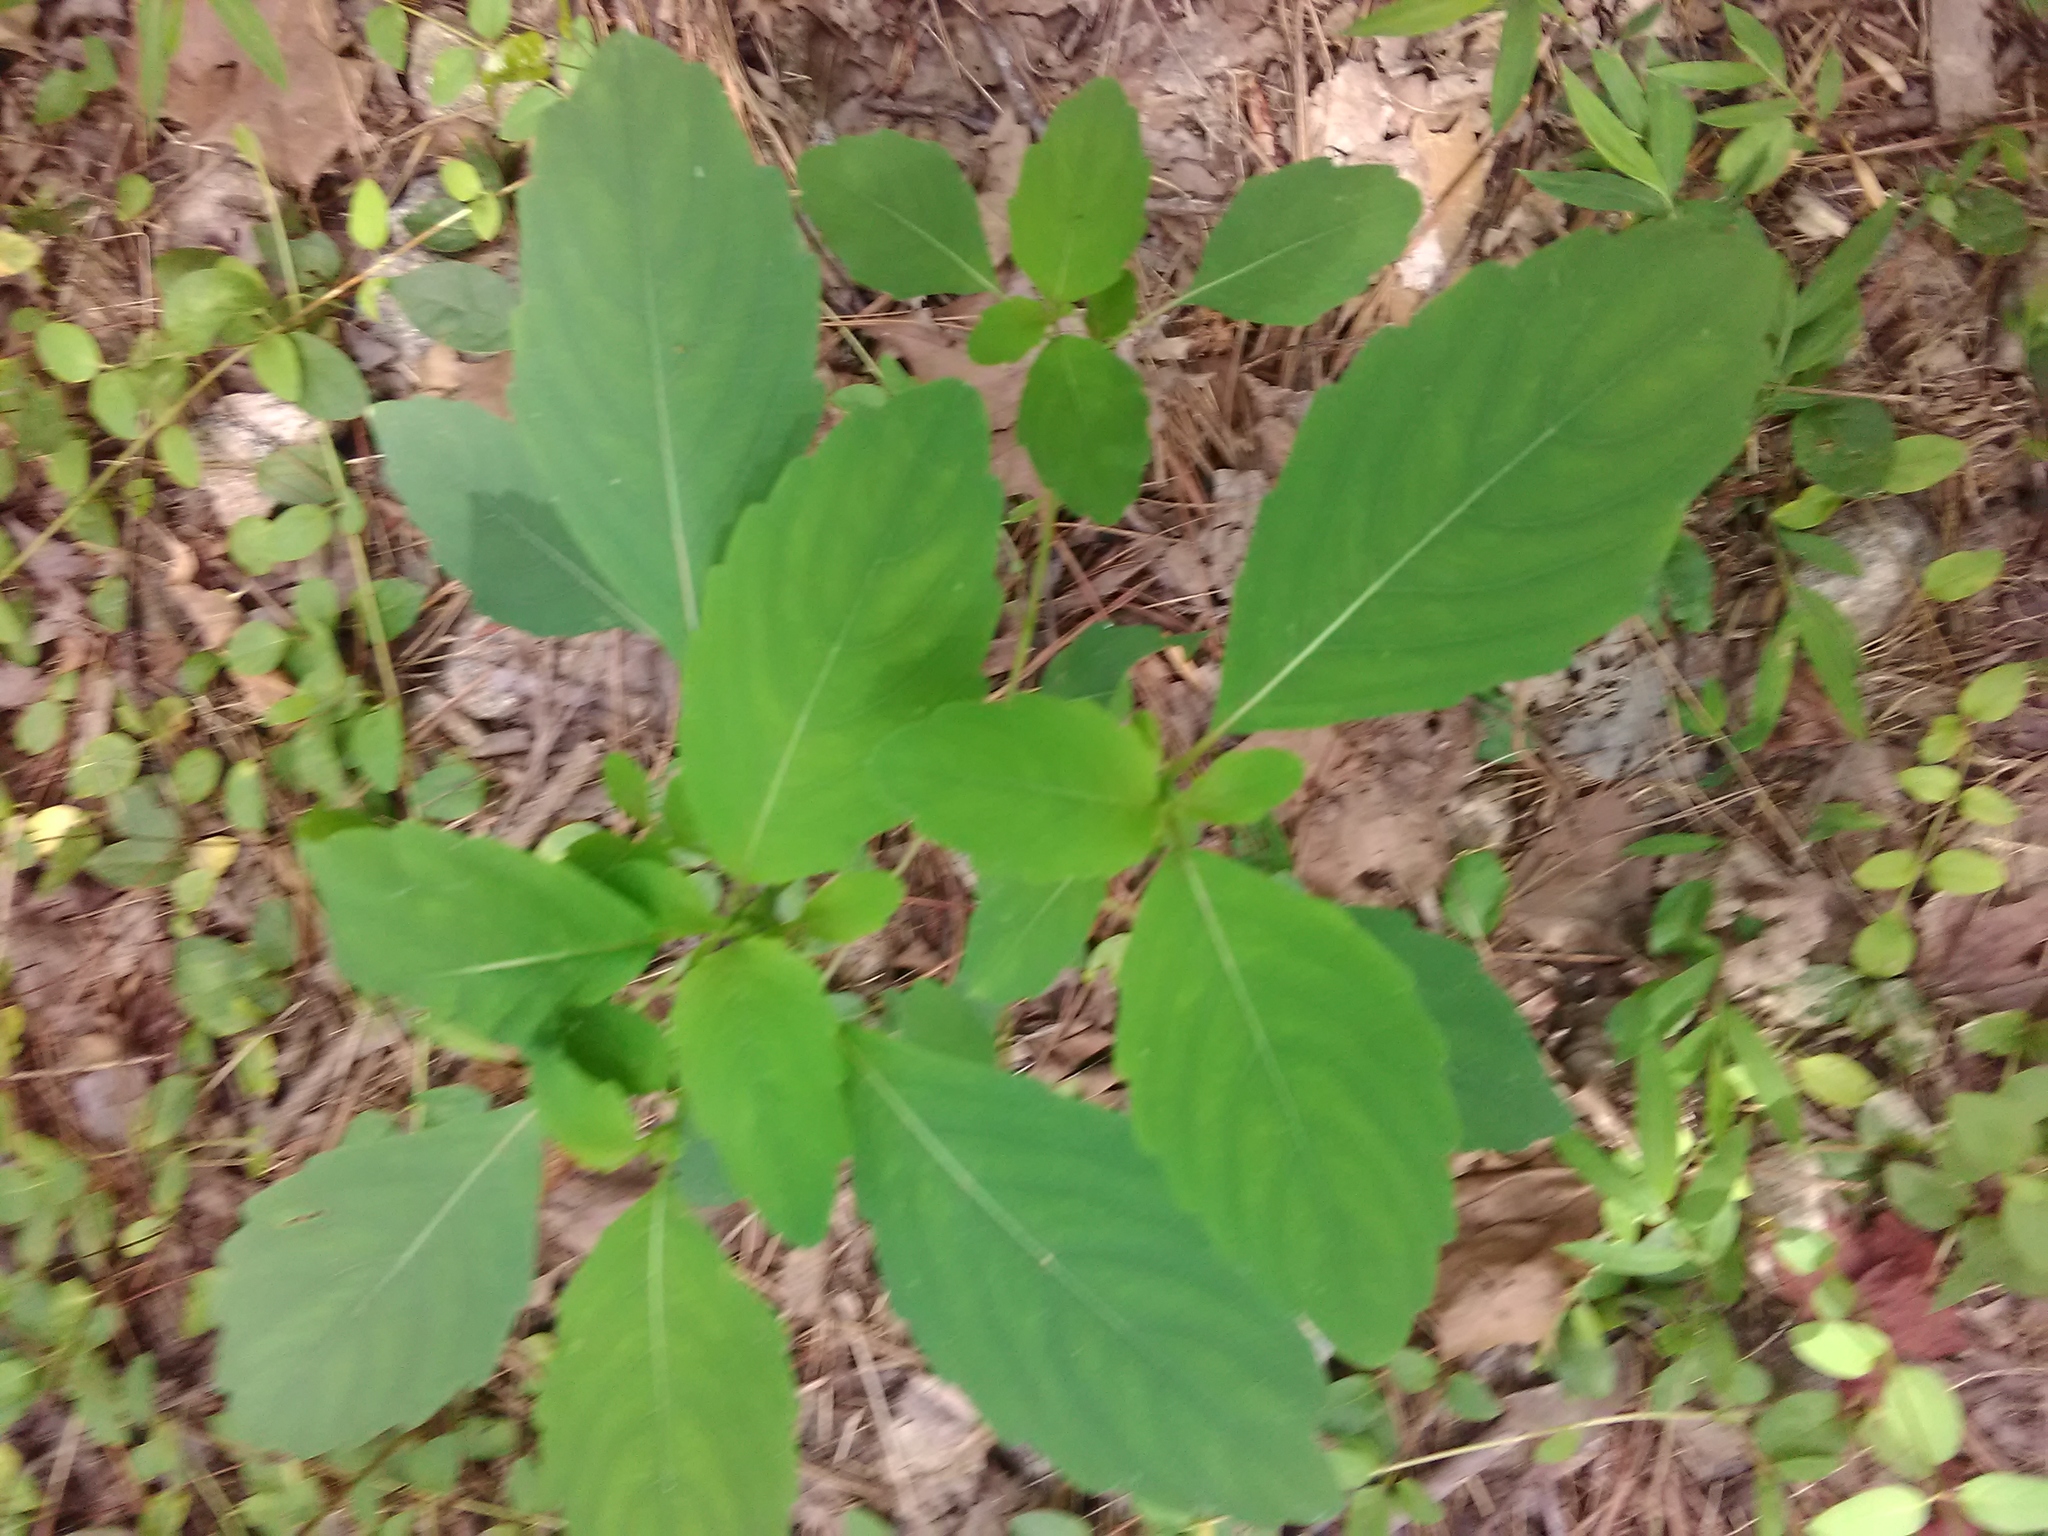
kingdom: Plantae
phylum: Tracheophyta
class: Magnoliopsida
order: Ericales
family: Balsaminaceae
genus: Impatiens
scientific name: Impatiens capensis
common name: Orange balsam
